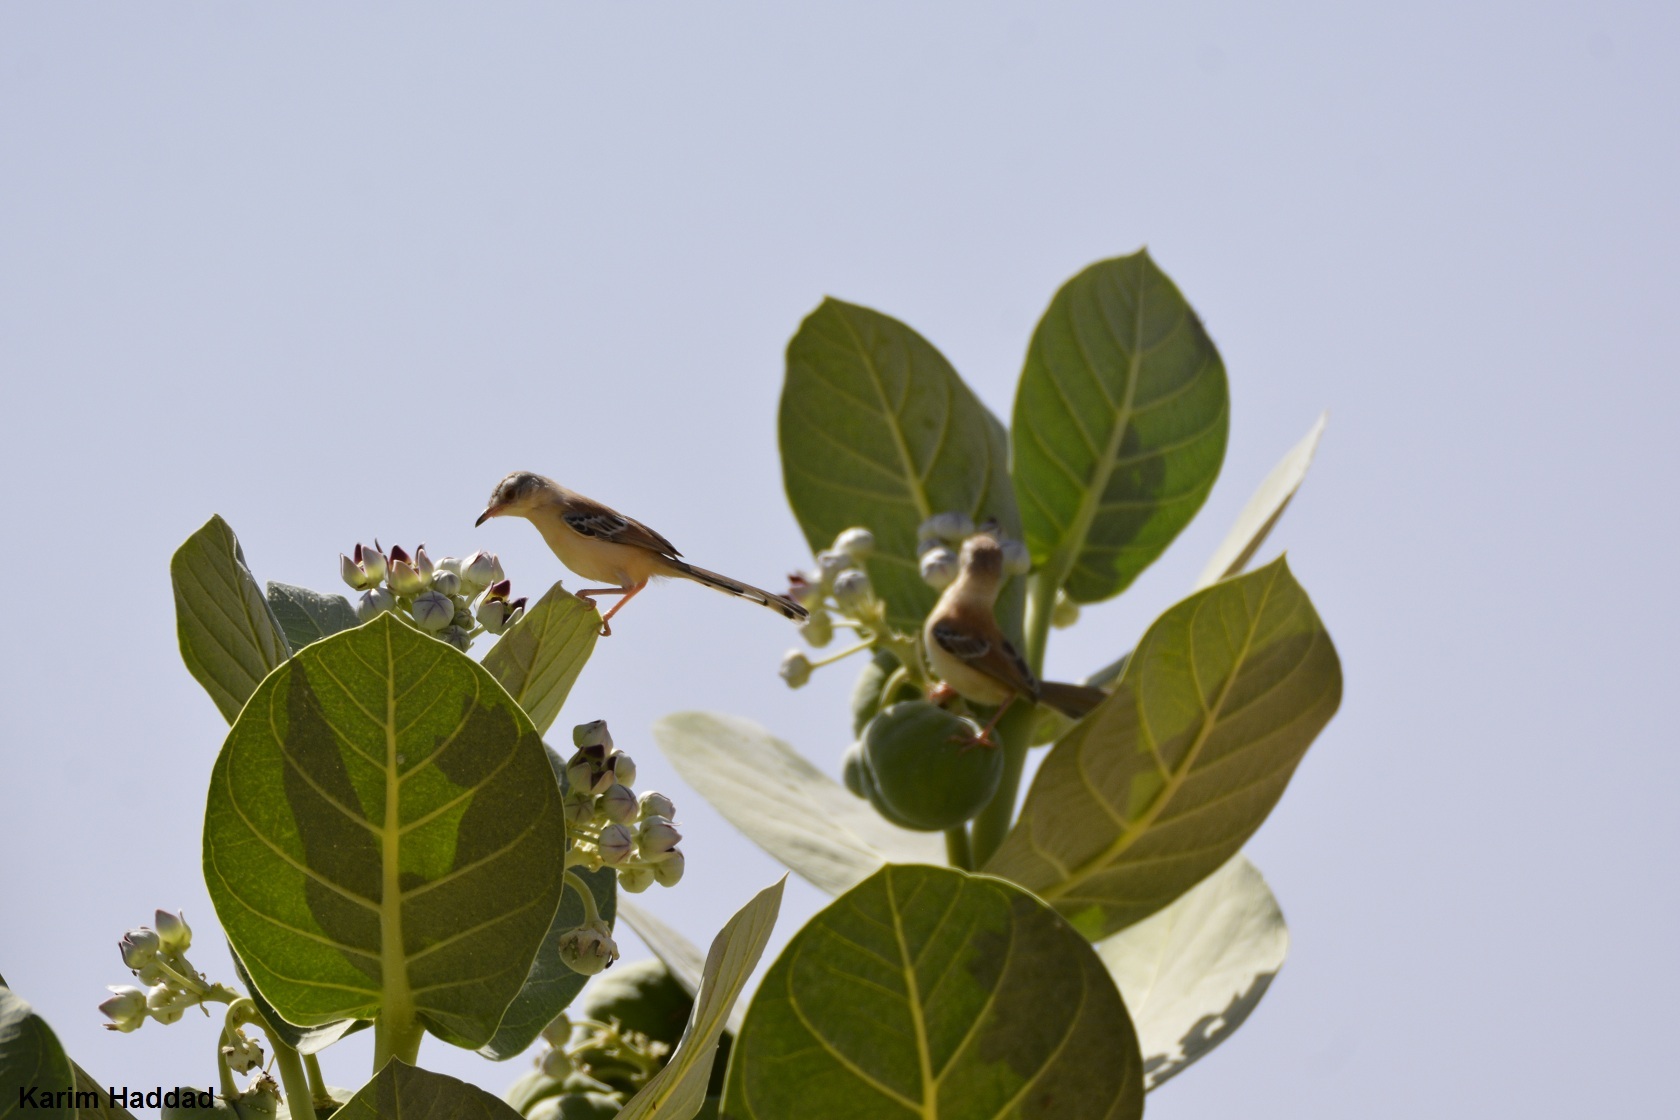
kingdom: Animalia
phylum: Chordata
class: Aves
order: Passeriformes
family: Cisticolidae
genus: Spiloptila
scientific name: Spiloptila clamans
